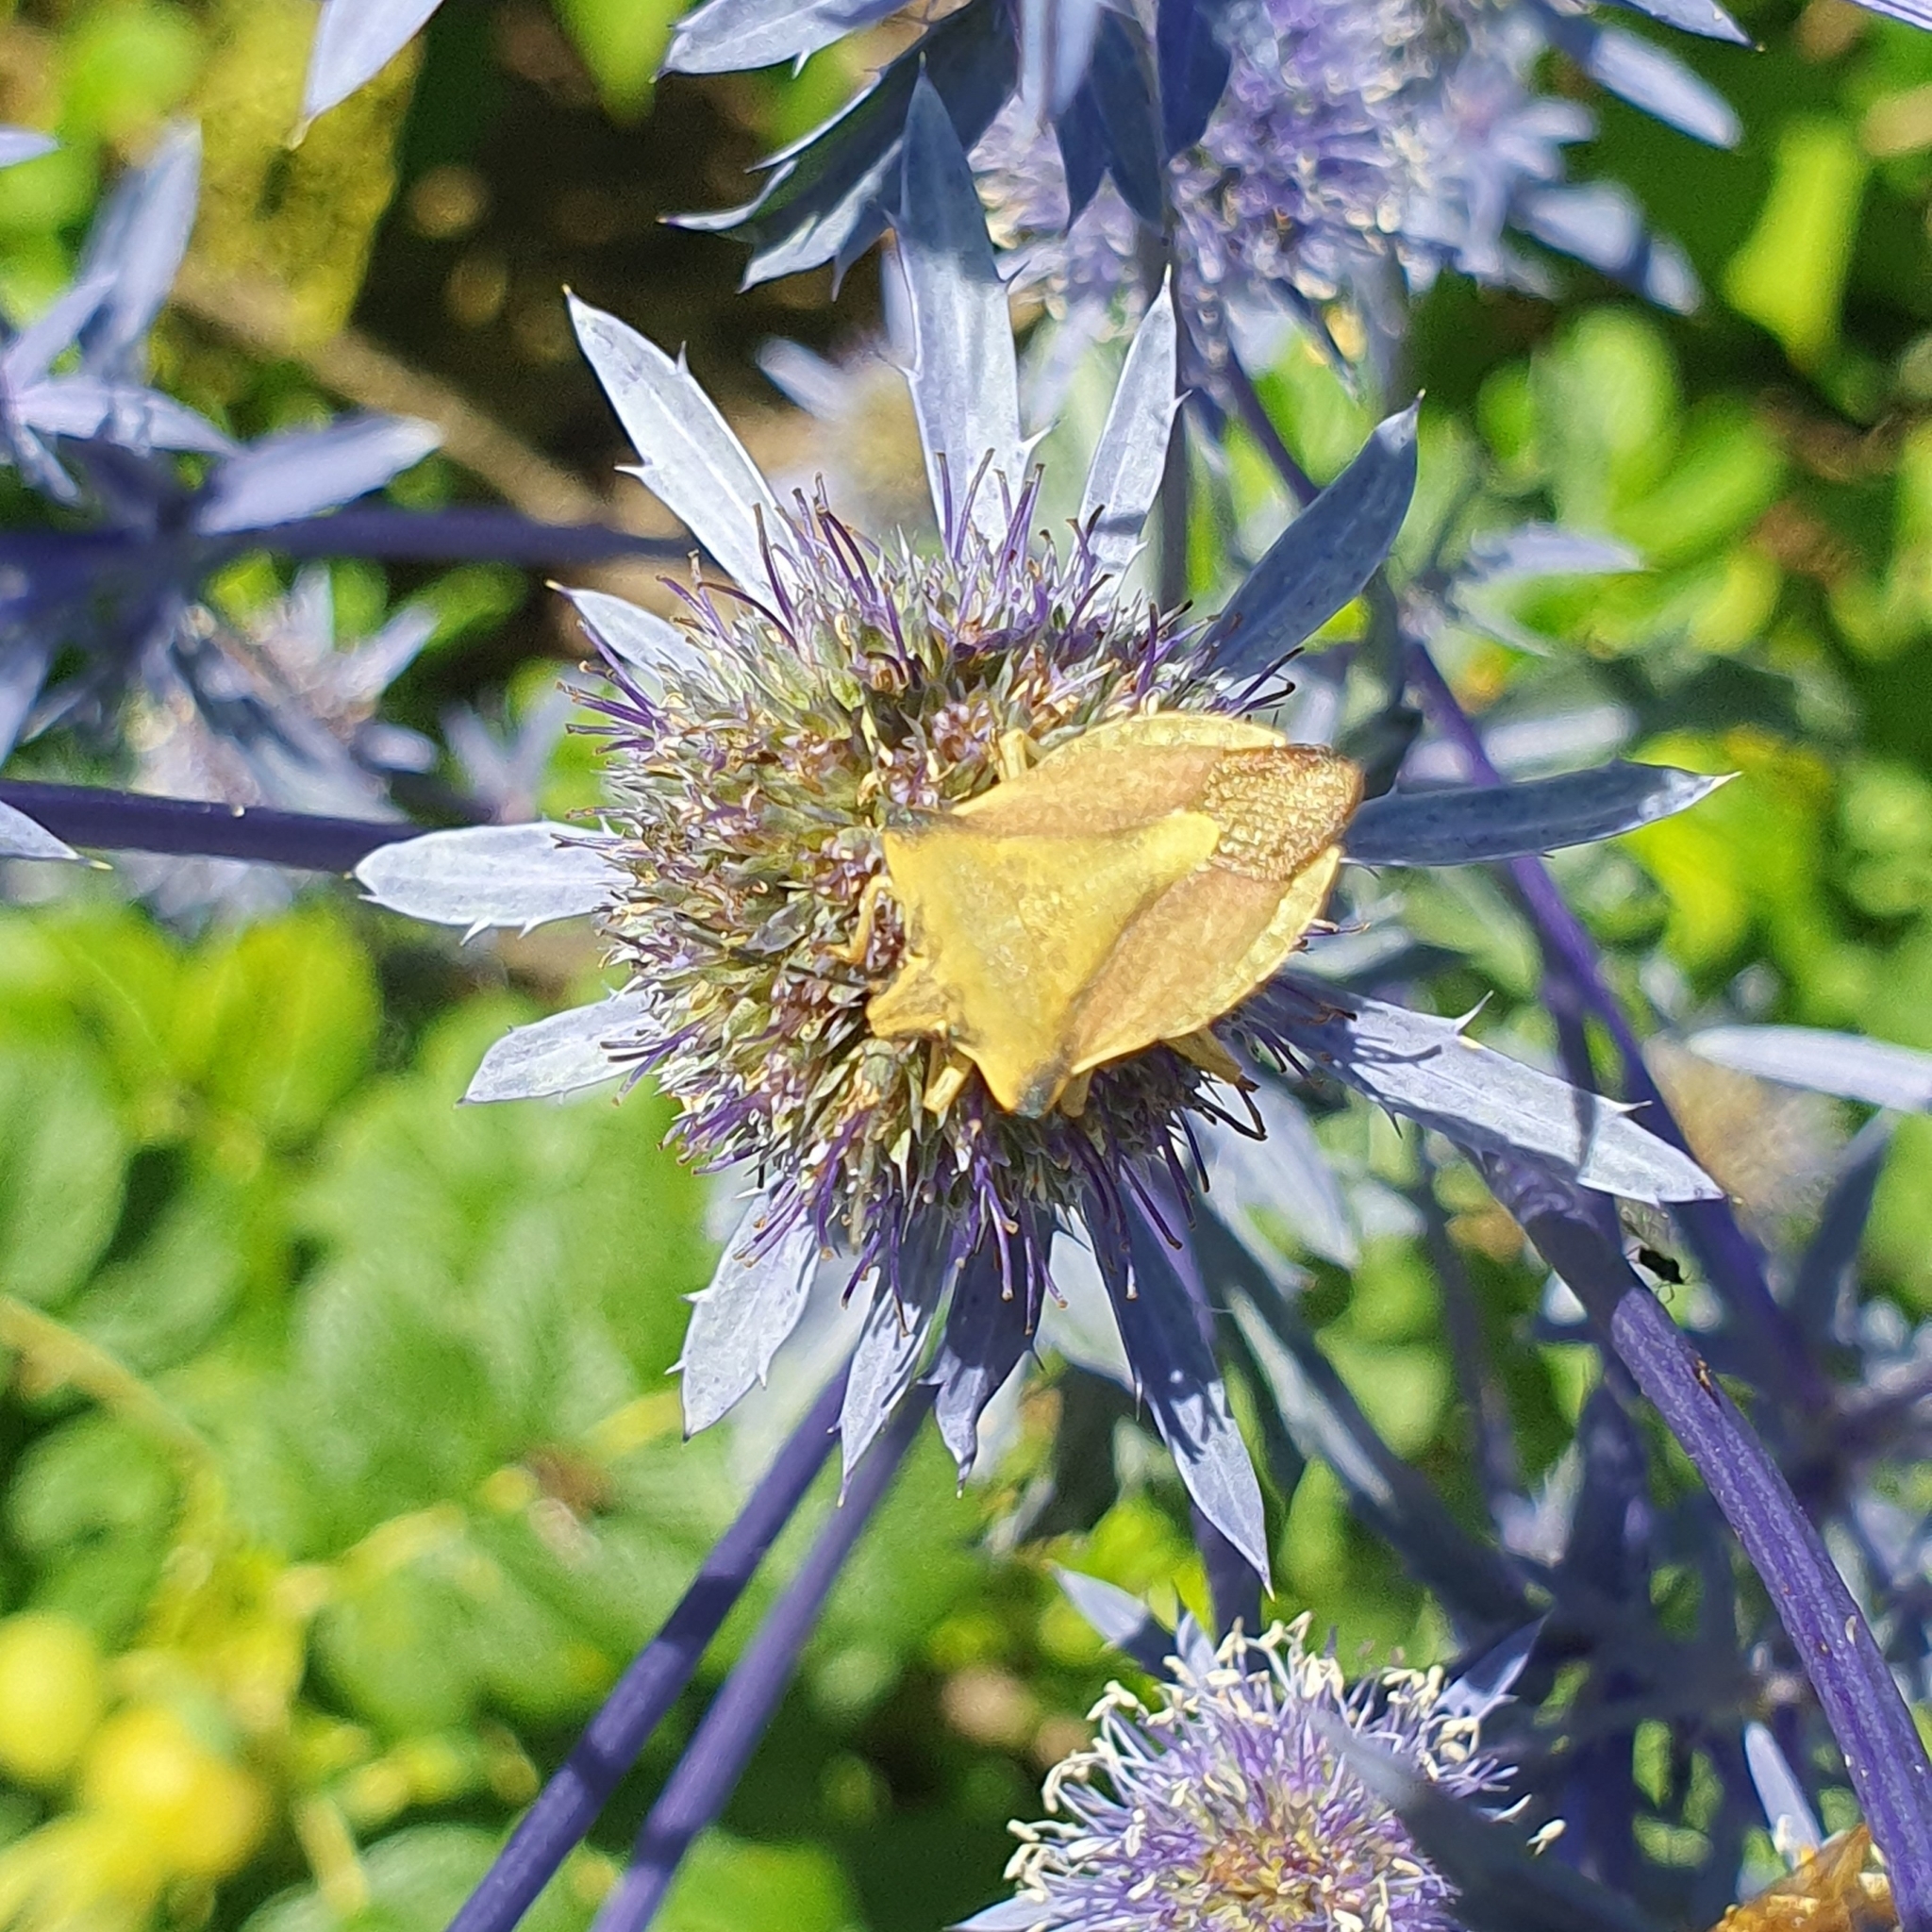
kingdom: Animalia
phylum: Arthropoda
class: Insecta
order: Hemiptera
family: Pentatomidae
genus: Carpocoris
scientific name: Carpocoris fuscispinus
